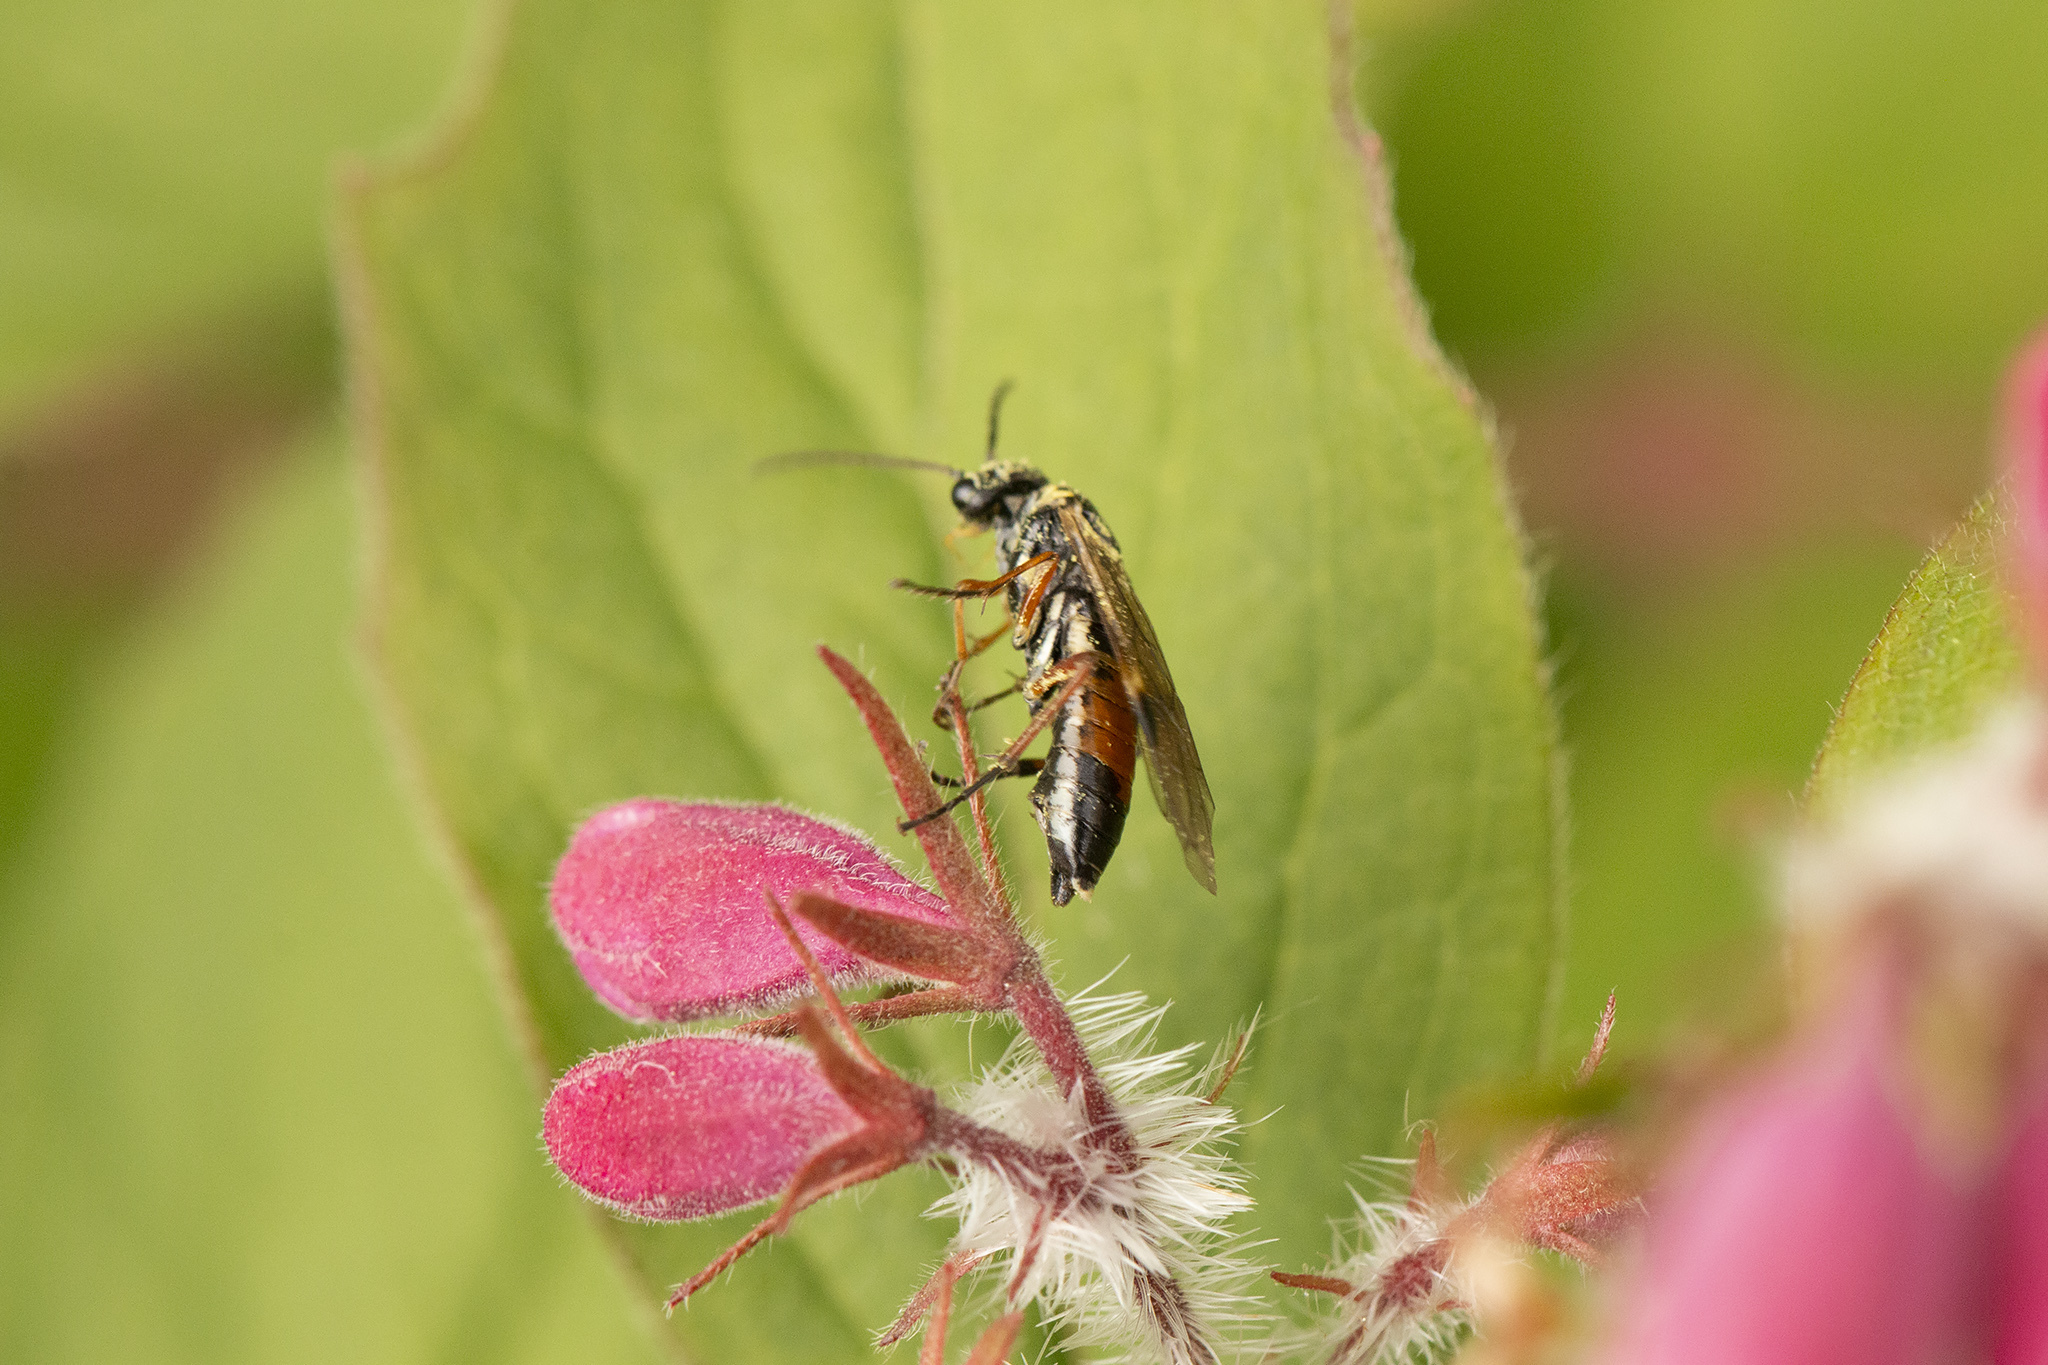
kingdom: Animalia
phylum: Arthropoda
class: Insecta
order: Hymenoptera
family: Tenthredinidae
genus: Aglaostigma
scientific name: Aglaostigma fulvipes
